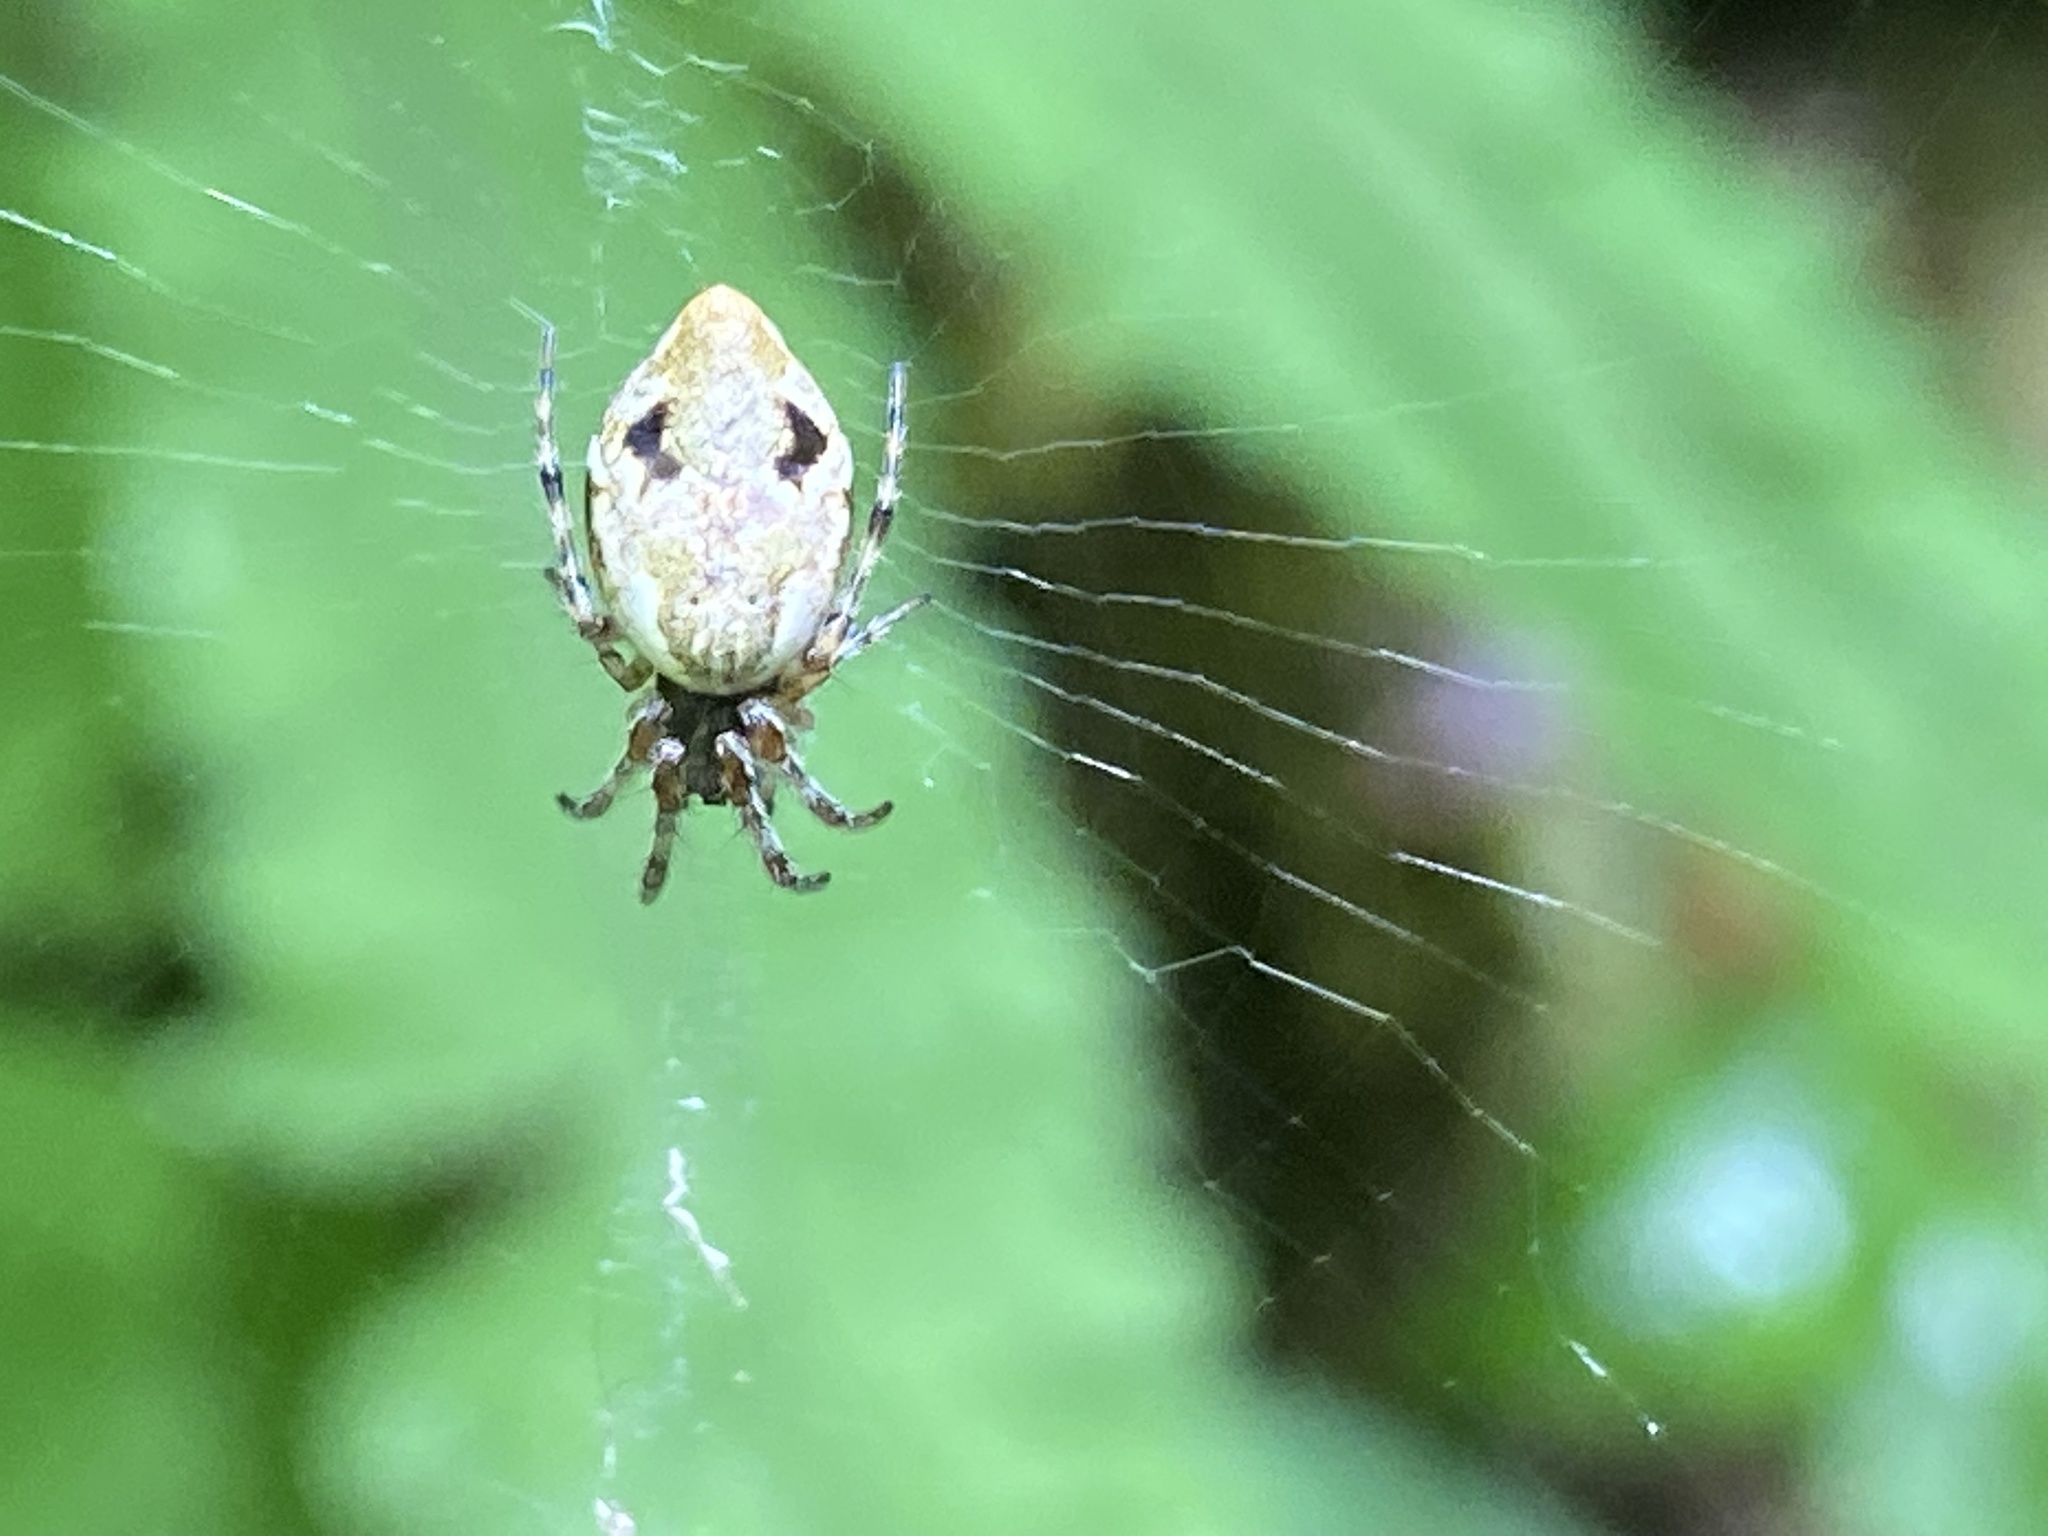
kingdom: Animalia
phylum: Arthropoda
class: Arachnida
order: Araneae
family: Araneidae
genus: Cyclosa
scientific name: Cyclosa conica
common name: Conical trashline orbweaver
